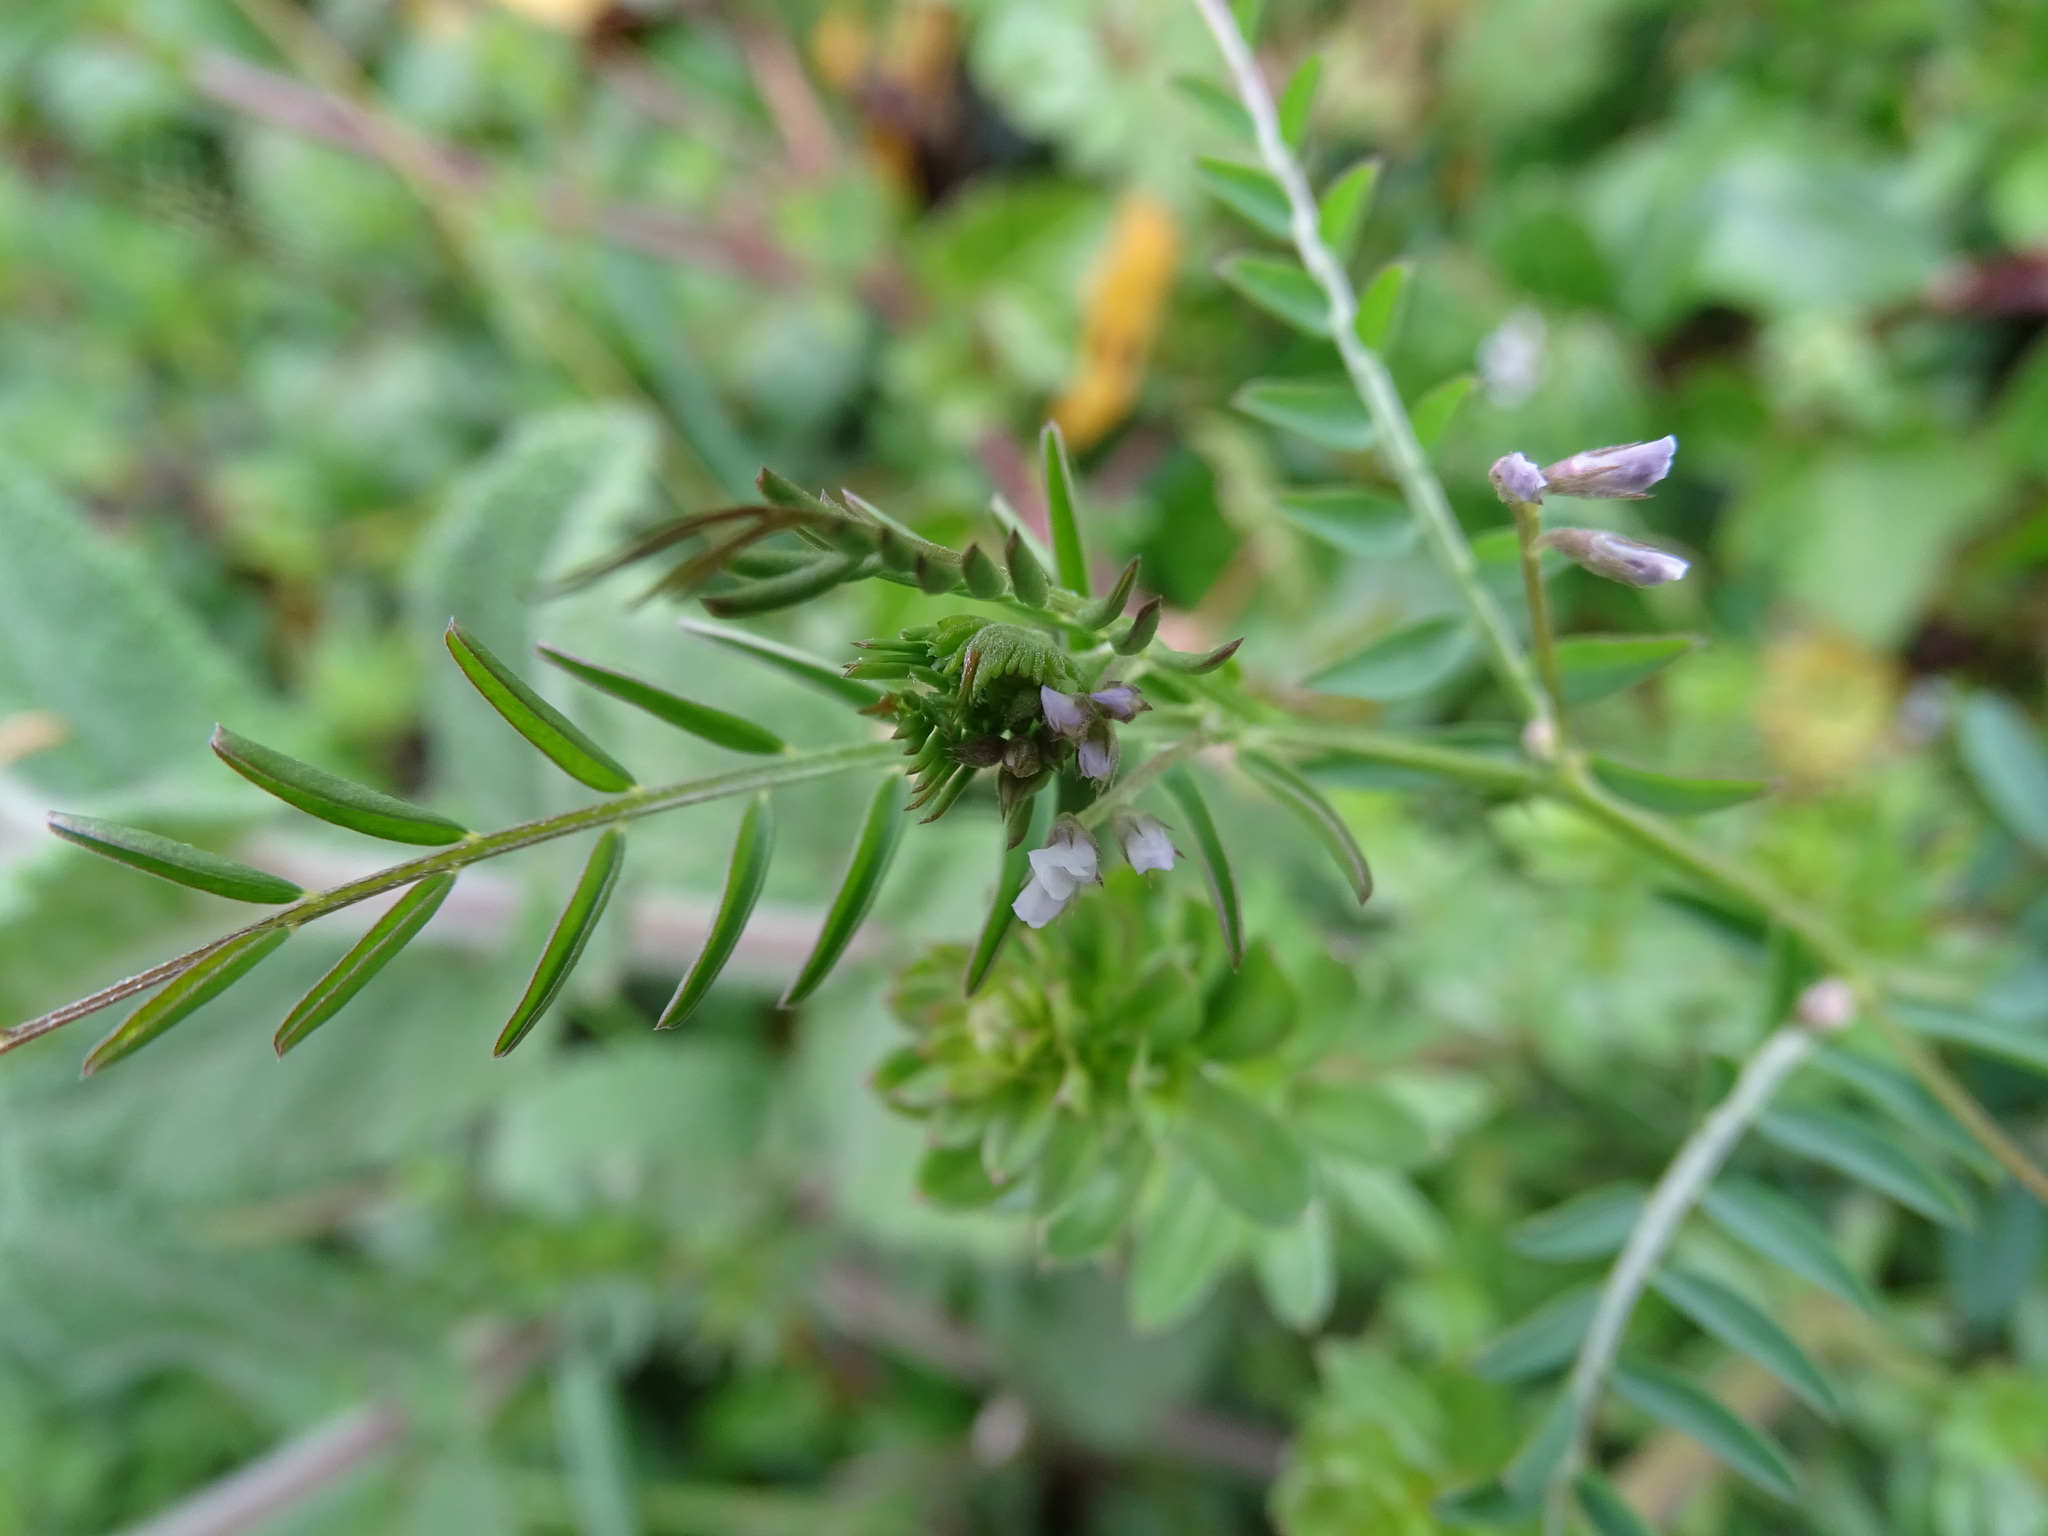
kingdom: Plantae
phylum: Tracheophyta
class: Magnoliopsida
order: Fabales
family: Fabaceae
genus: Vicia
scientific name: Vicia hirsuta
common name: Tiny vetch
